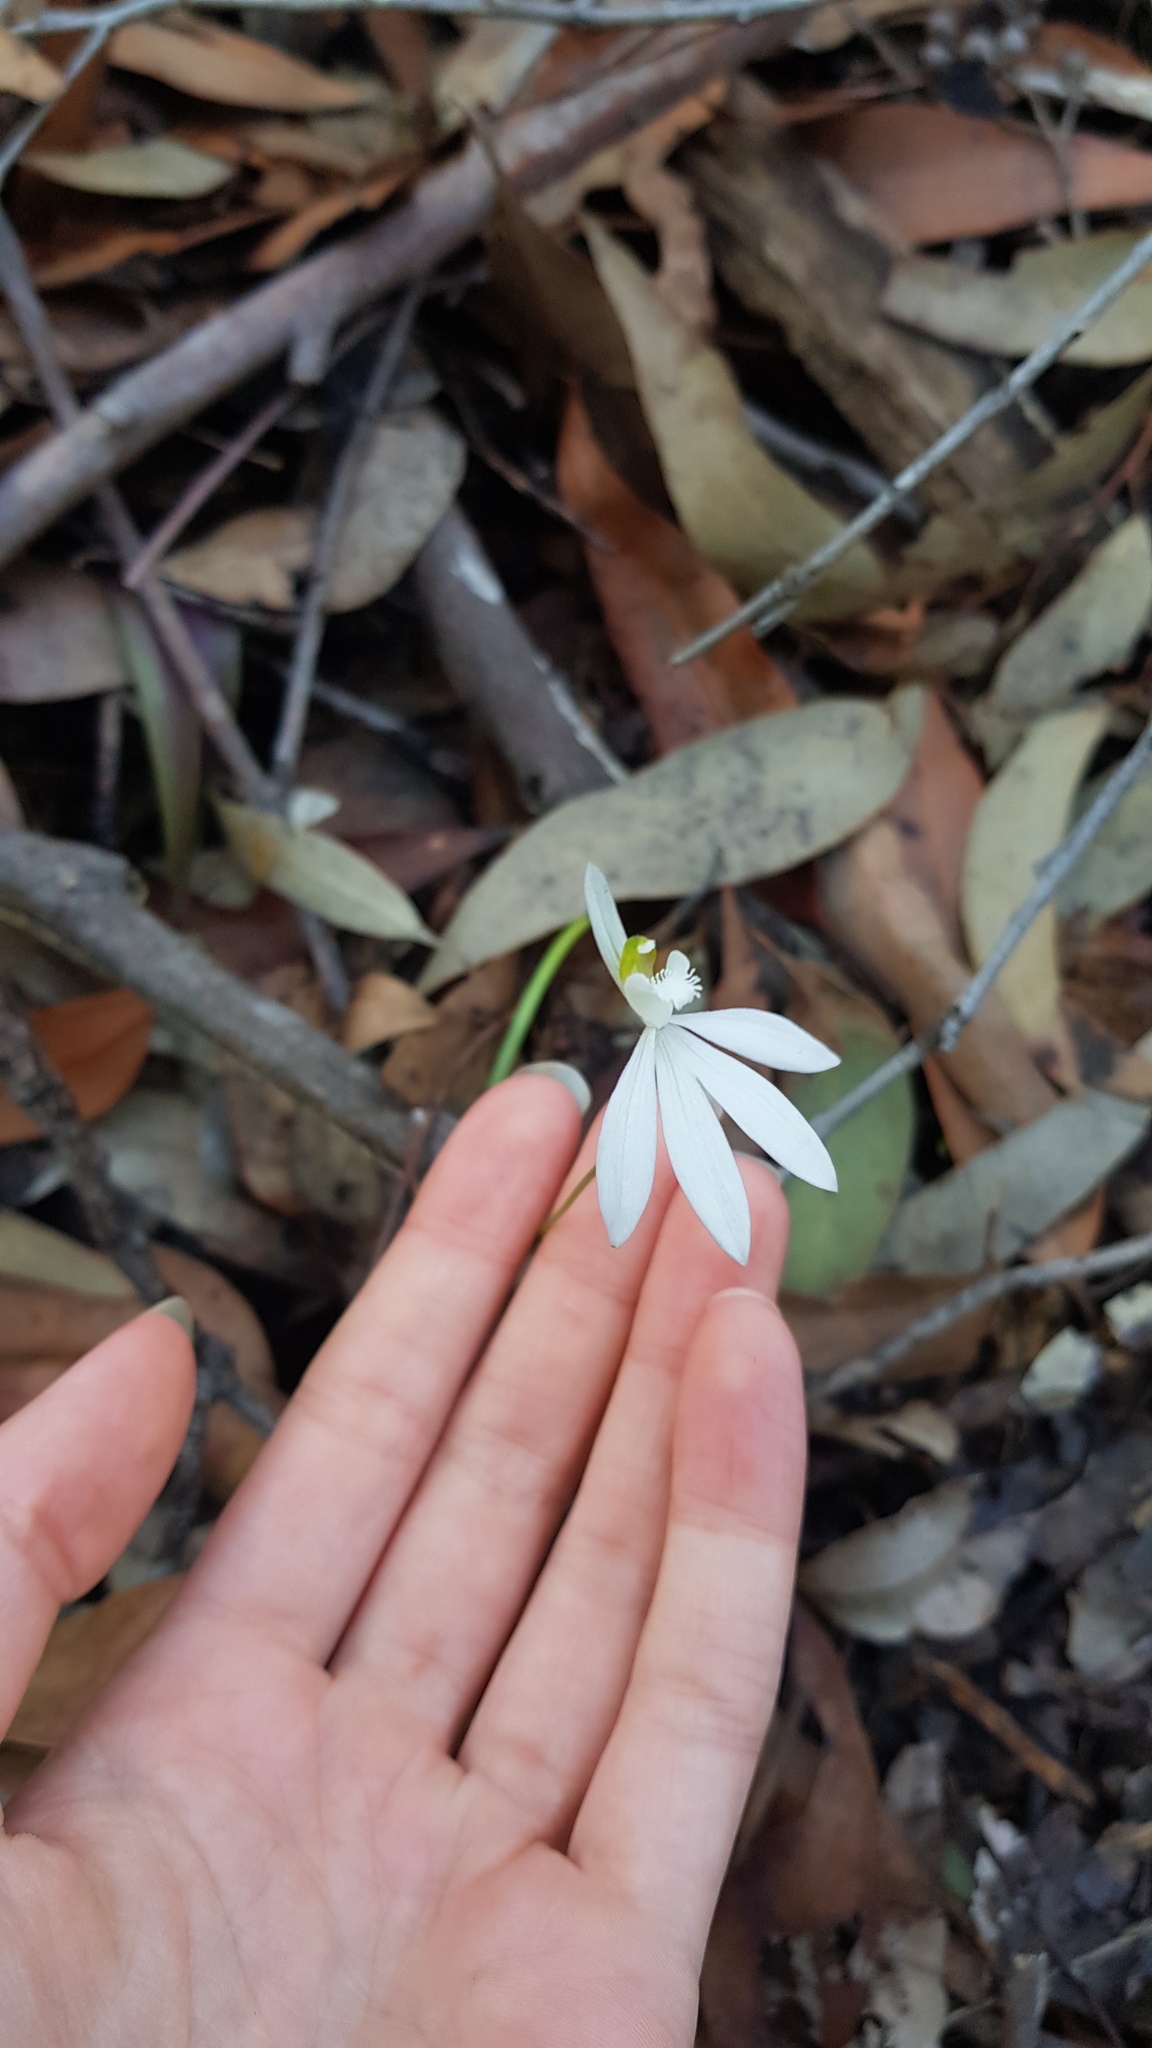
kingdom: Plantae
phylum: Tracheophyta
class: Liliopsida
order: Asparagales
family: Orchidaceae
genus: Caladenia
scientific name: Caladenia catenata
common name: White caladenia
